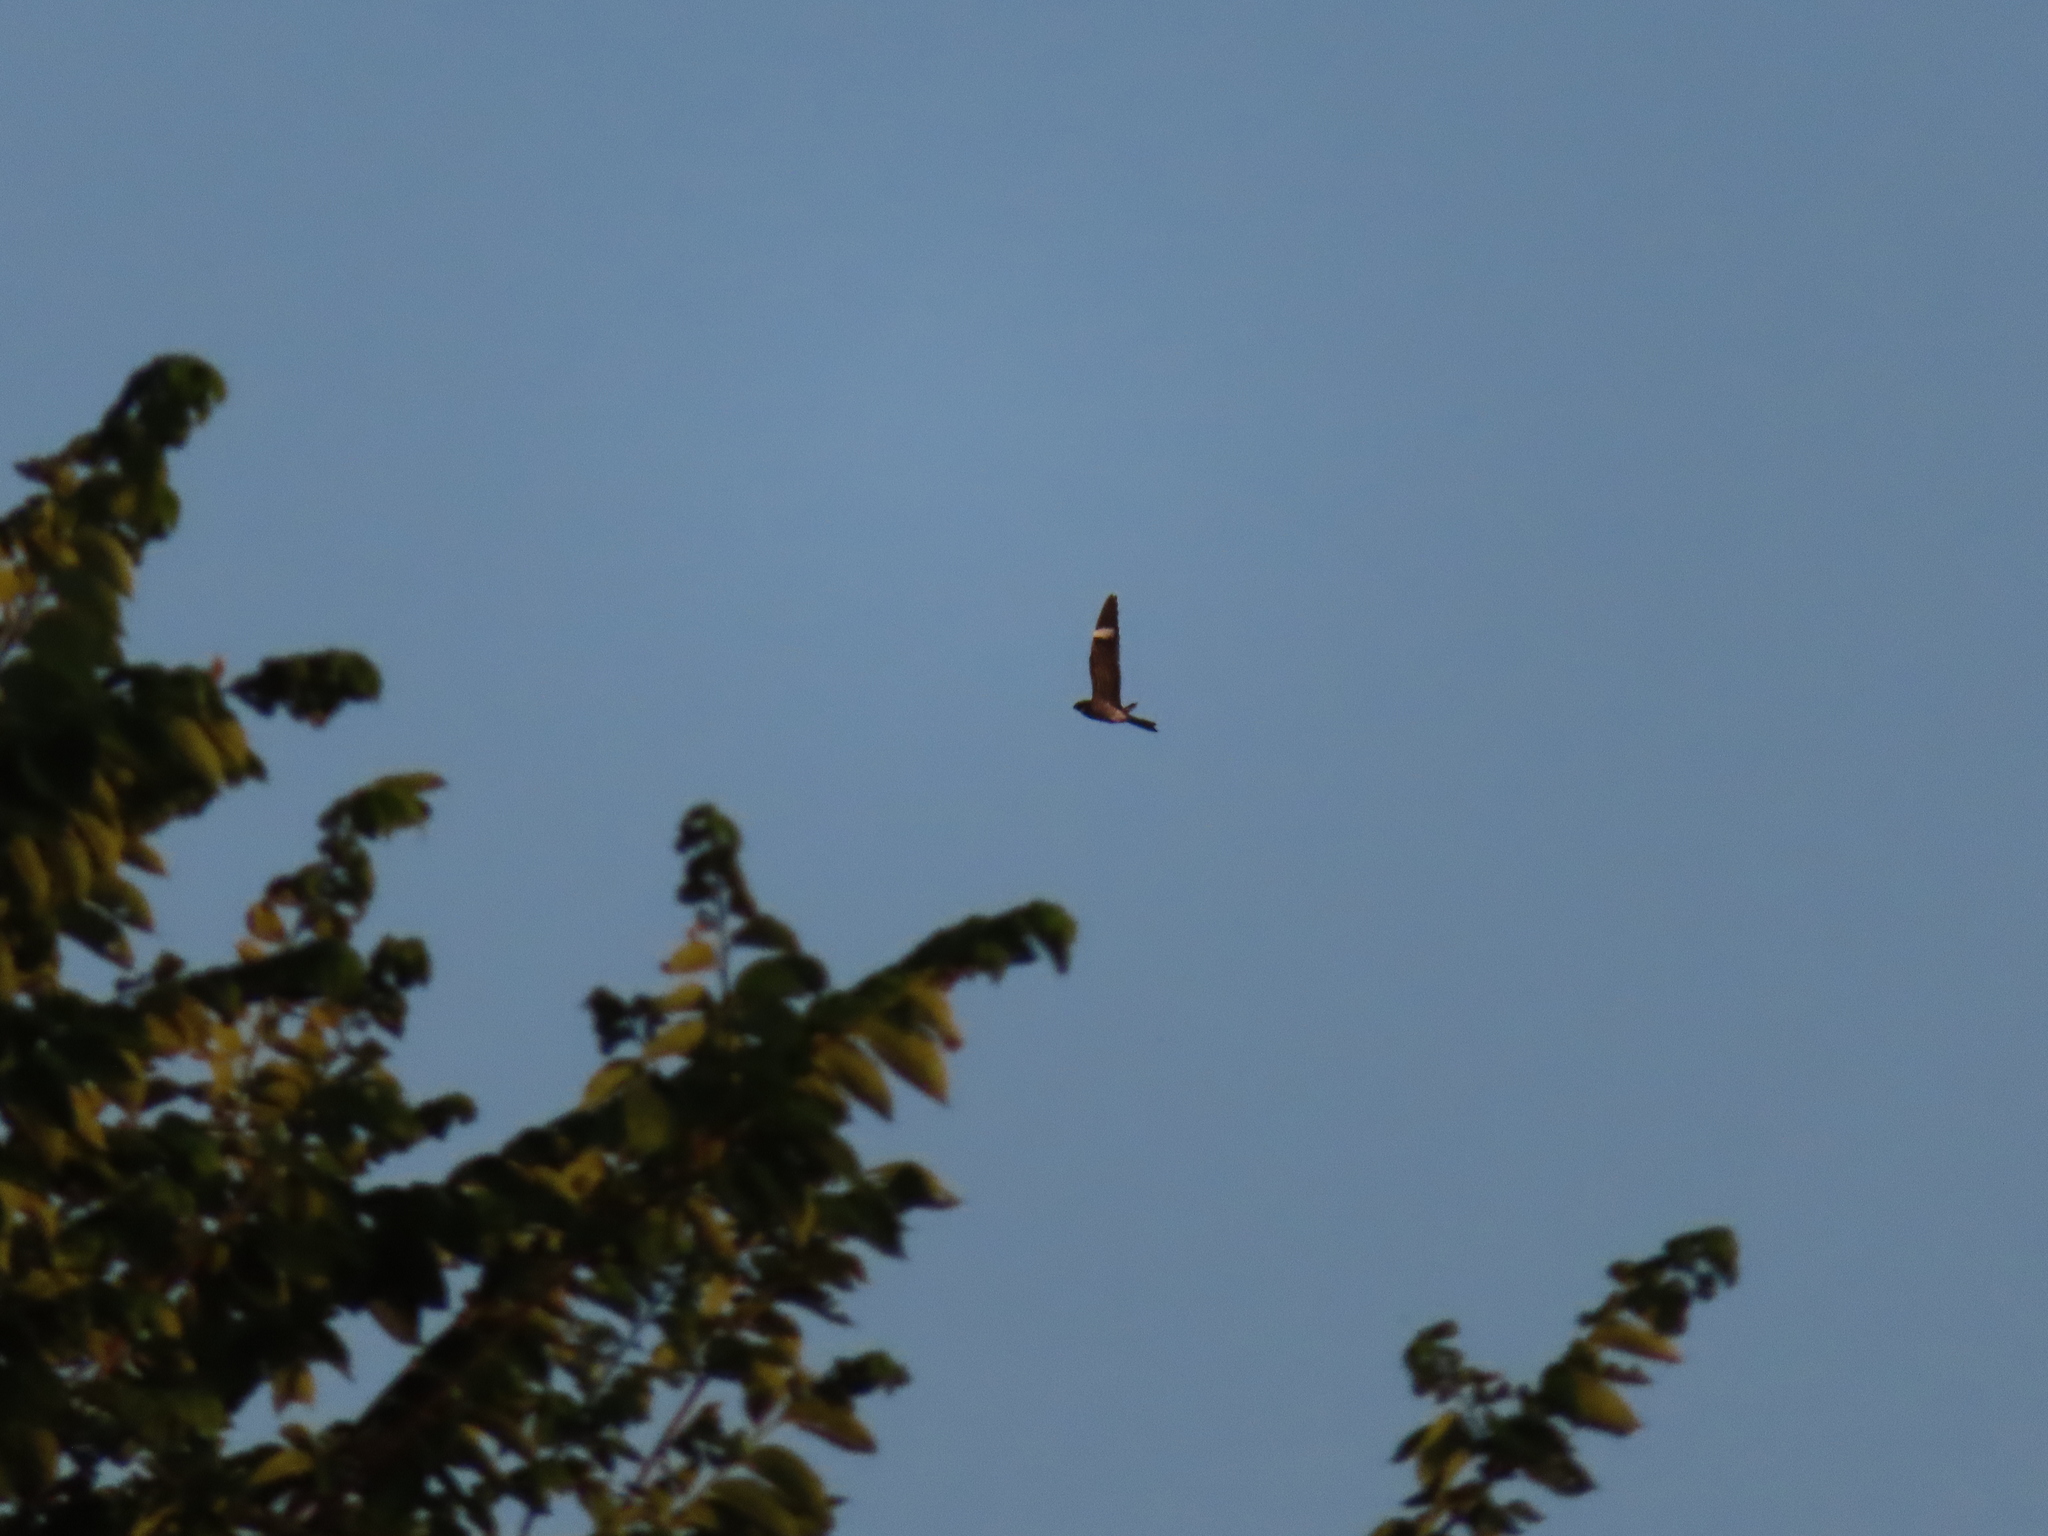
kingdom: Animalia
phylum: Chordata
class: Aves
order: Caprimulgiformes
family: Caprimulgidae
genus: Chordeiles
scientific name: Chordeiles minor
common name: Common nighthawk
